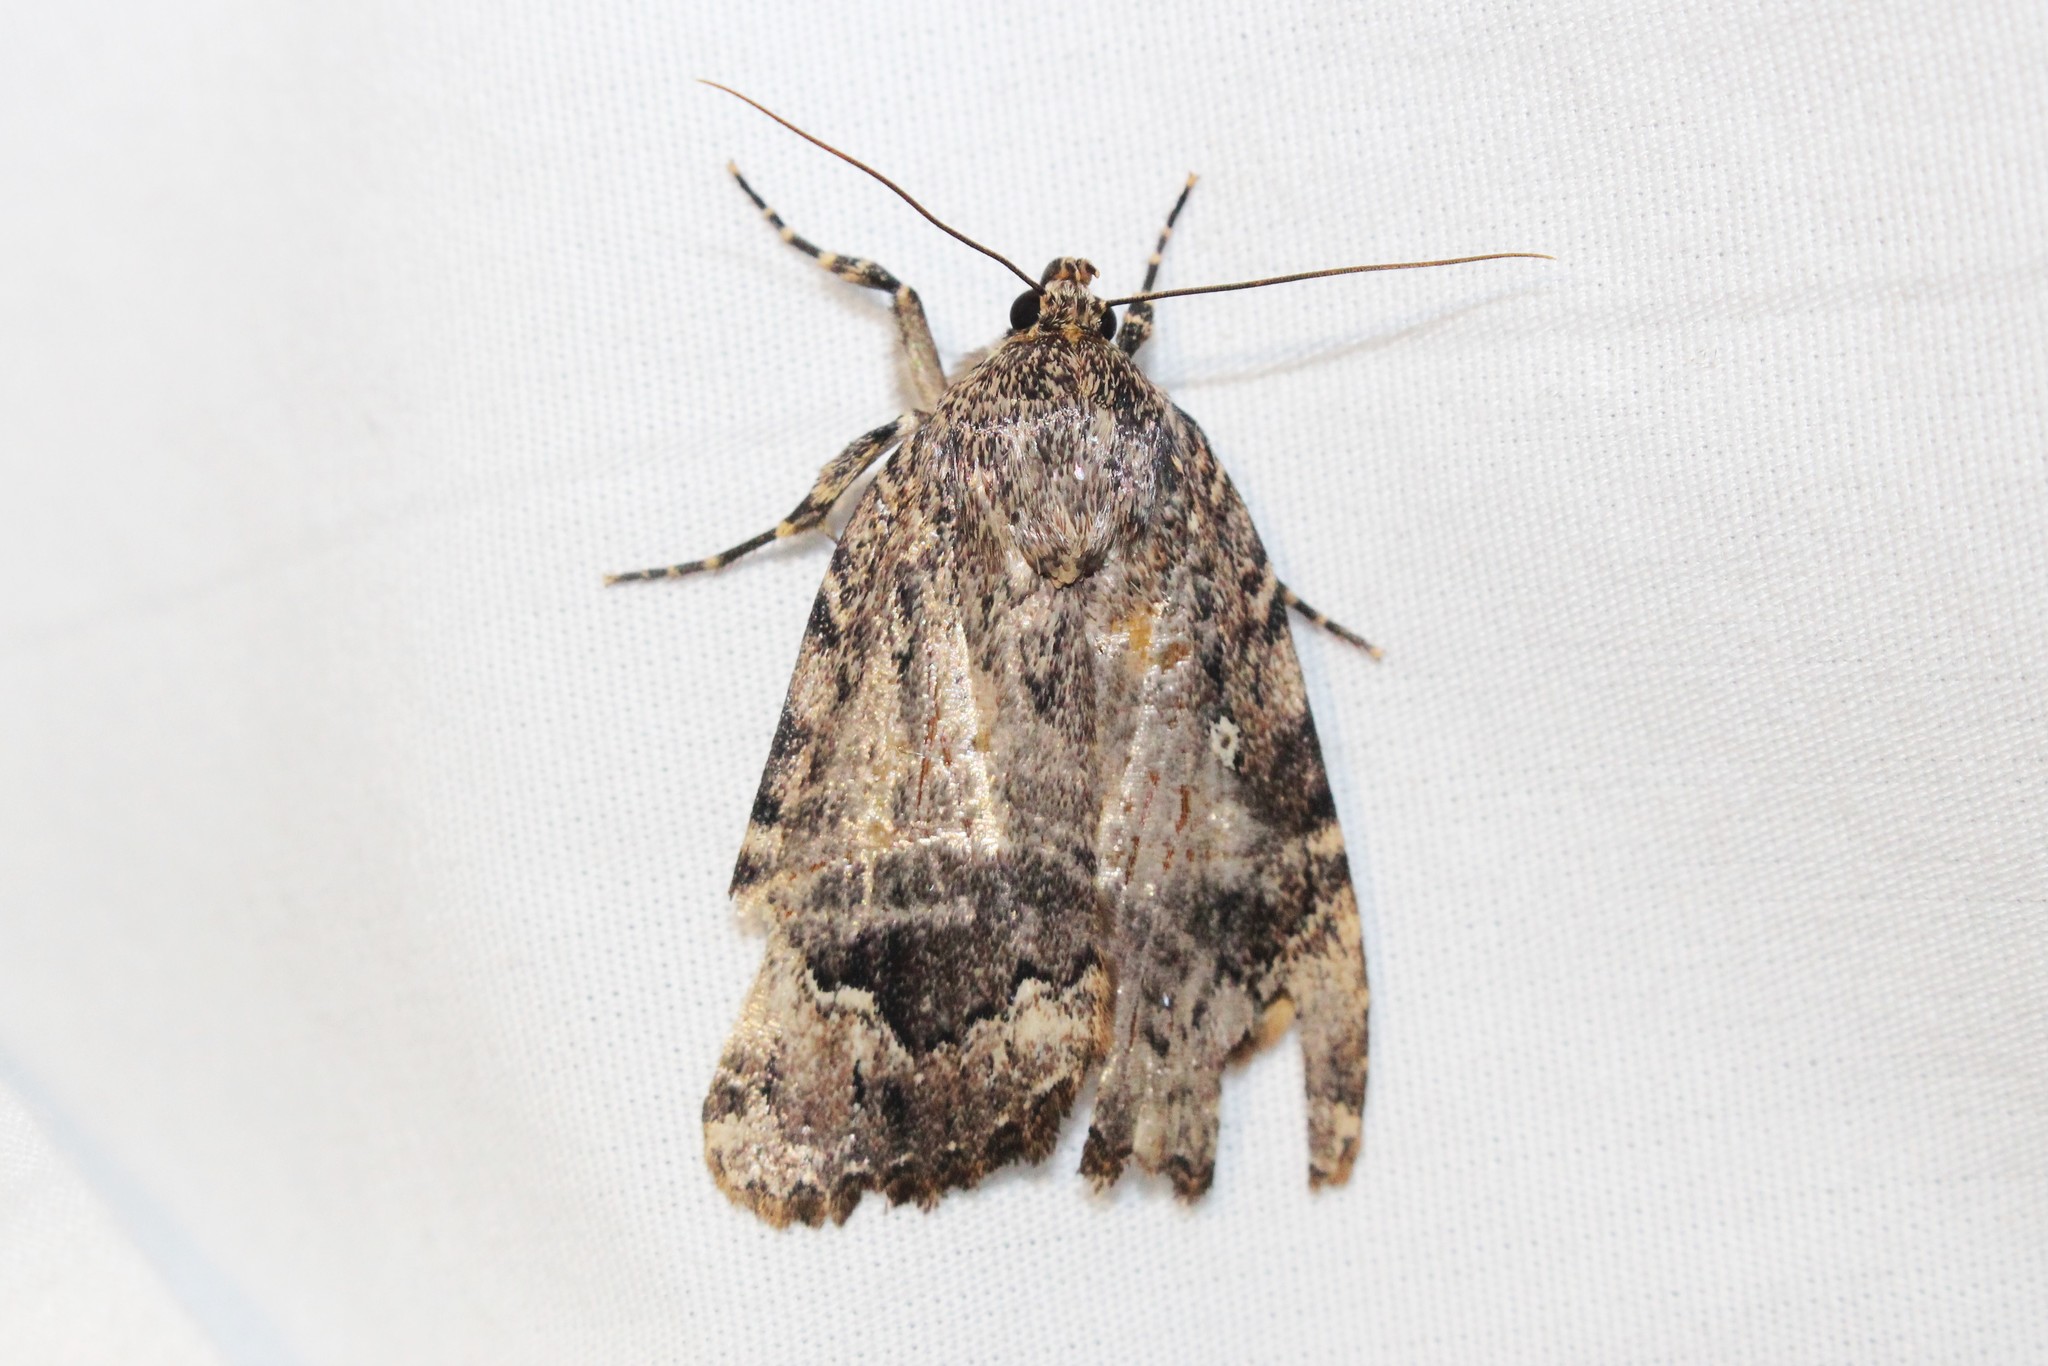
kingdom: Animalia
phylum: Arthropoda
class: Insecta
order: Lepidoptera
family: Noctuidae
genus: Amphipyra
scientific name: Amphipyra pyramidoides
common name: American copper underwing
